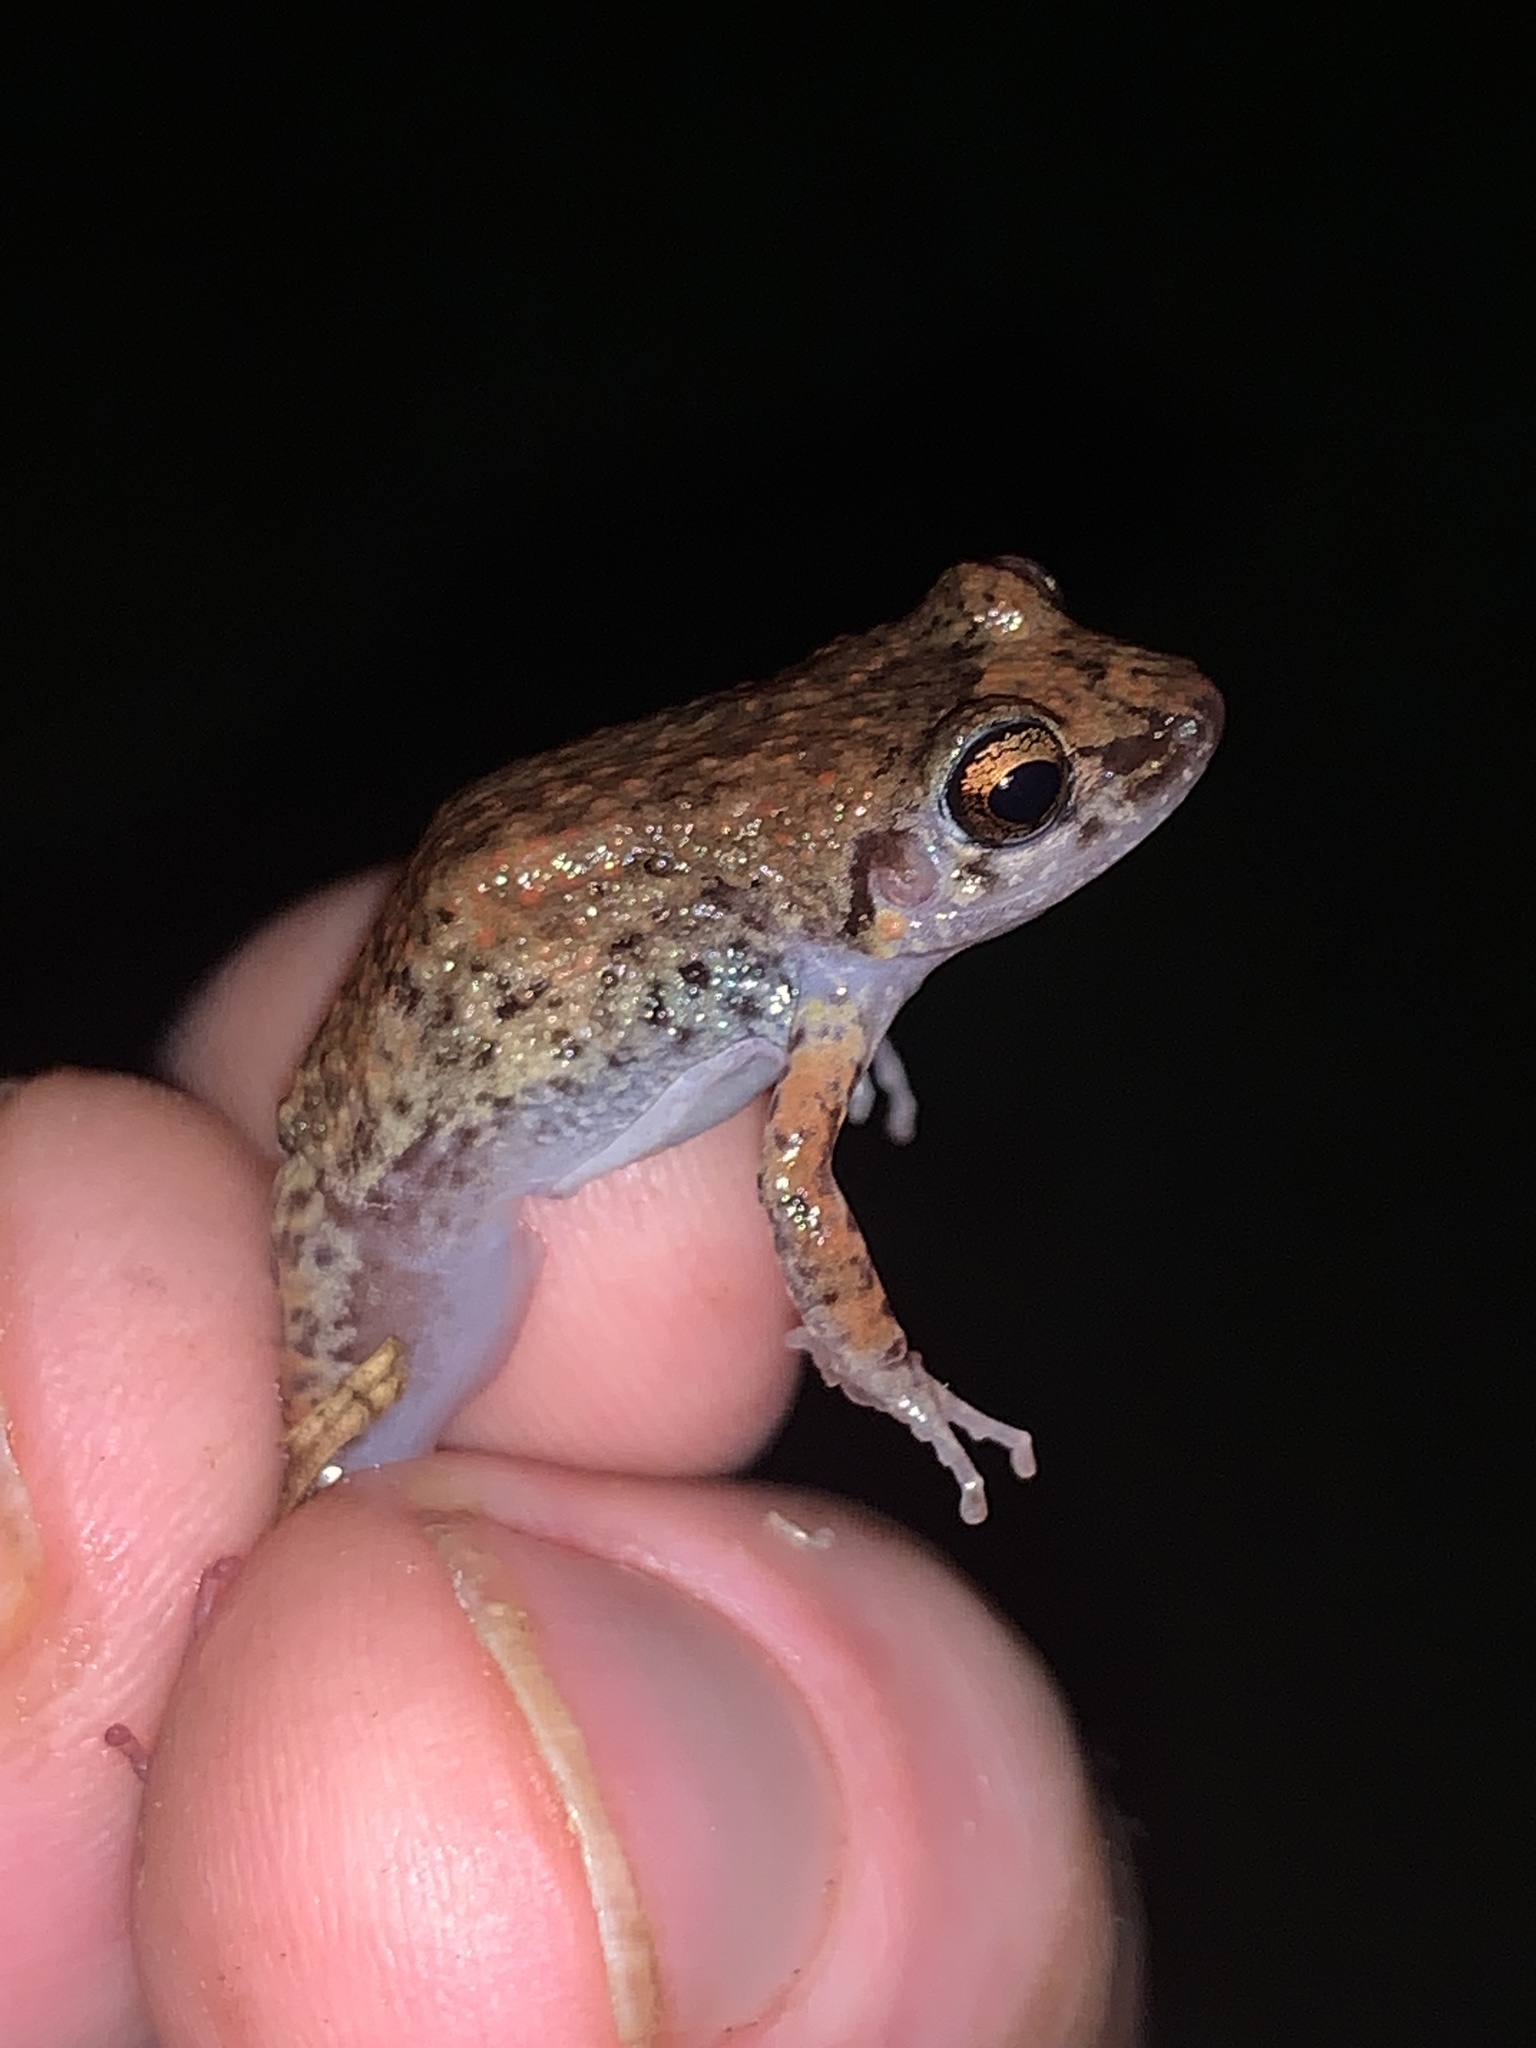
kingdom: Animalia
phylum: Chordata
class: Amphibia
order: Anura
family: Eleutherodactylidae
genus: Eleutherodactylus
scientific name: Eleutherodactylus planirostris
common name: Greenhouse frog
